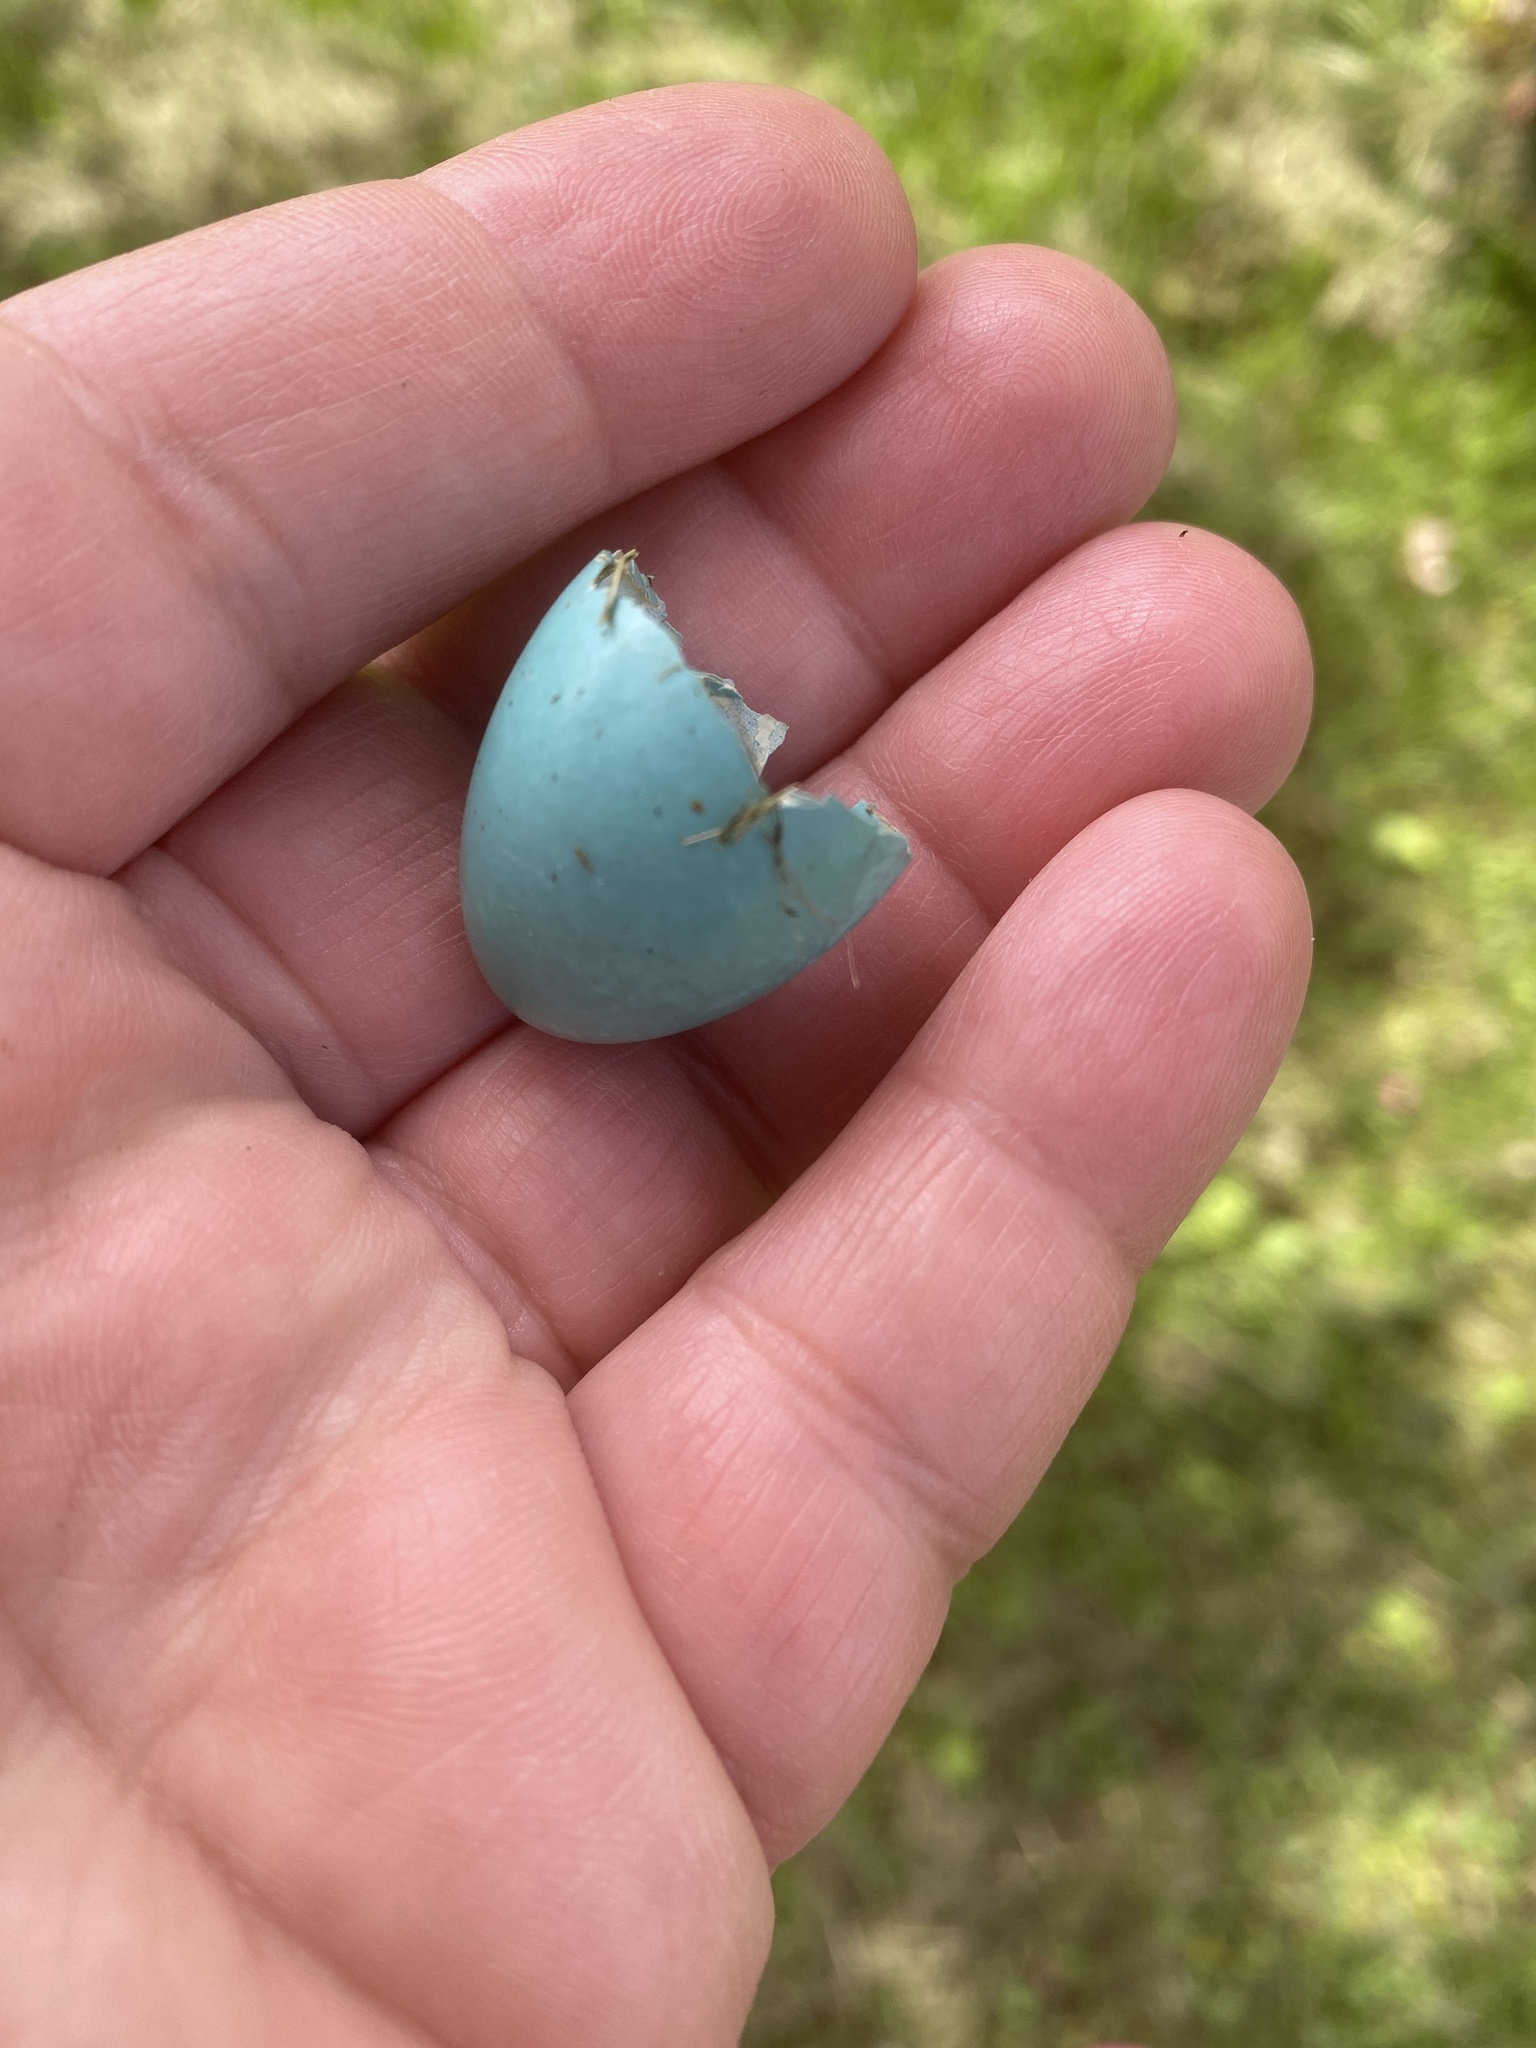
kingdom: Animalia
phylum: Chordata
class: Aves
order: Passeriformes
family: Turdidae
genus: Turdus
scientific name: Turdus migratorius
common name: American robin
